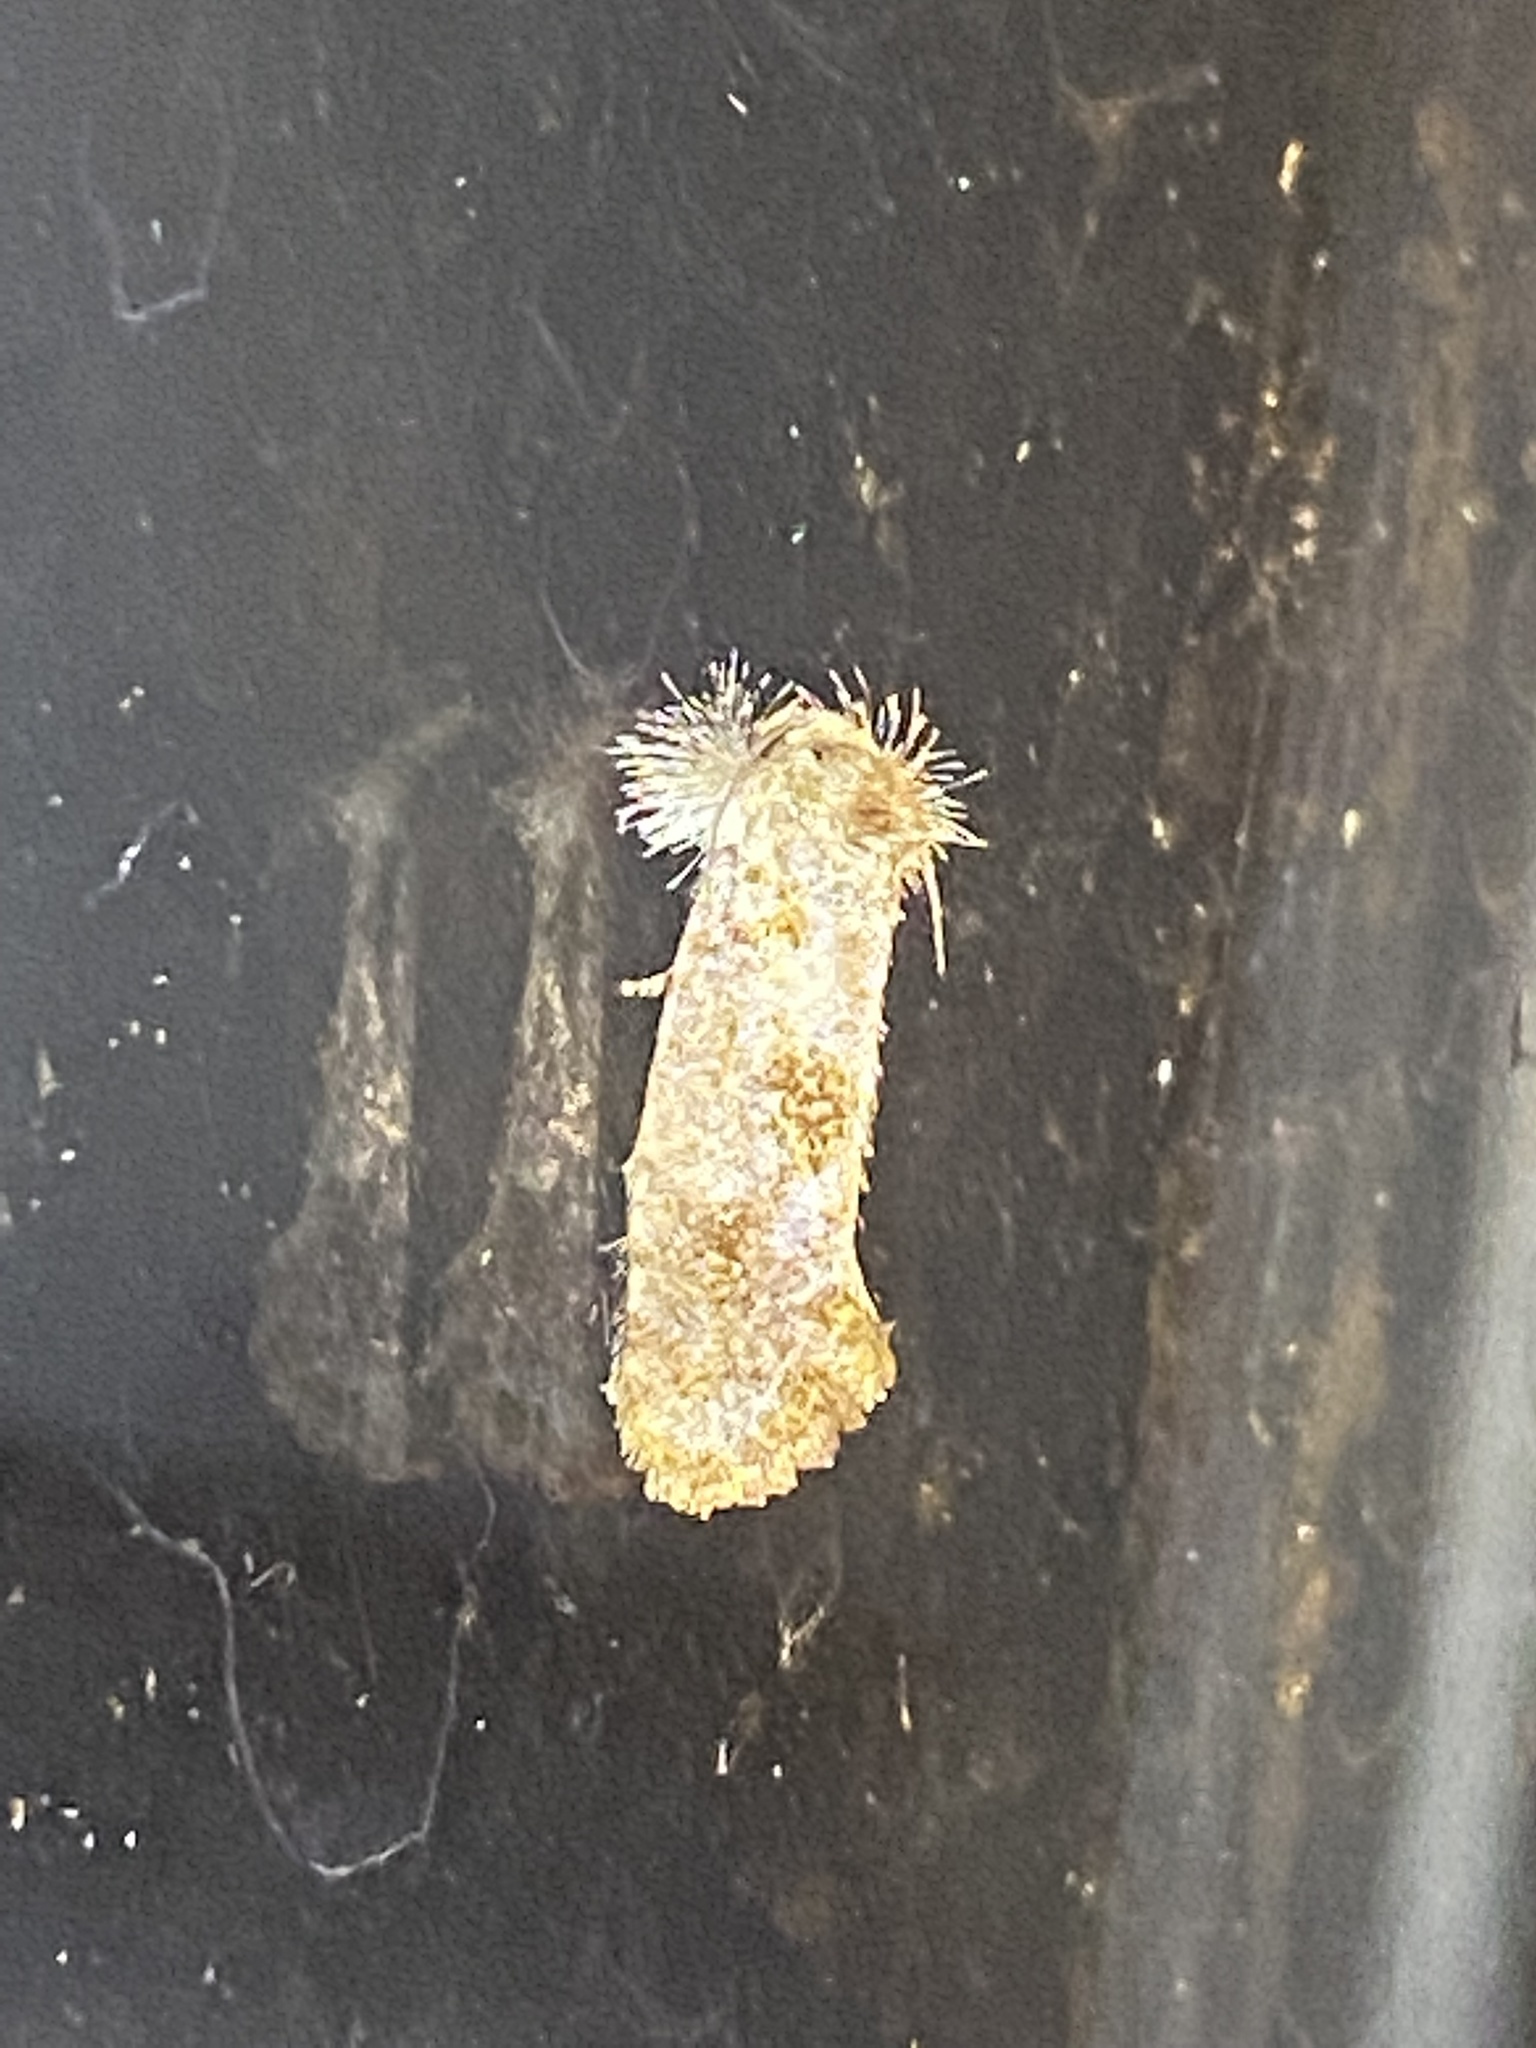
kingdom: Animalia
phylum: Arthropoda
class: Insecta
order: Lepidoptera
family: Tineidae
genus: Acrolophus
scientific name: Acrolophus panamae
